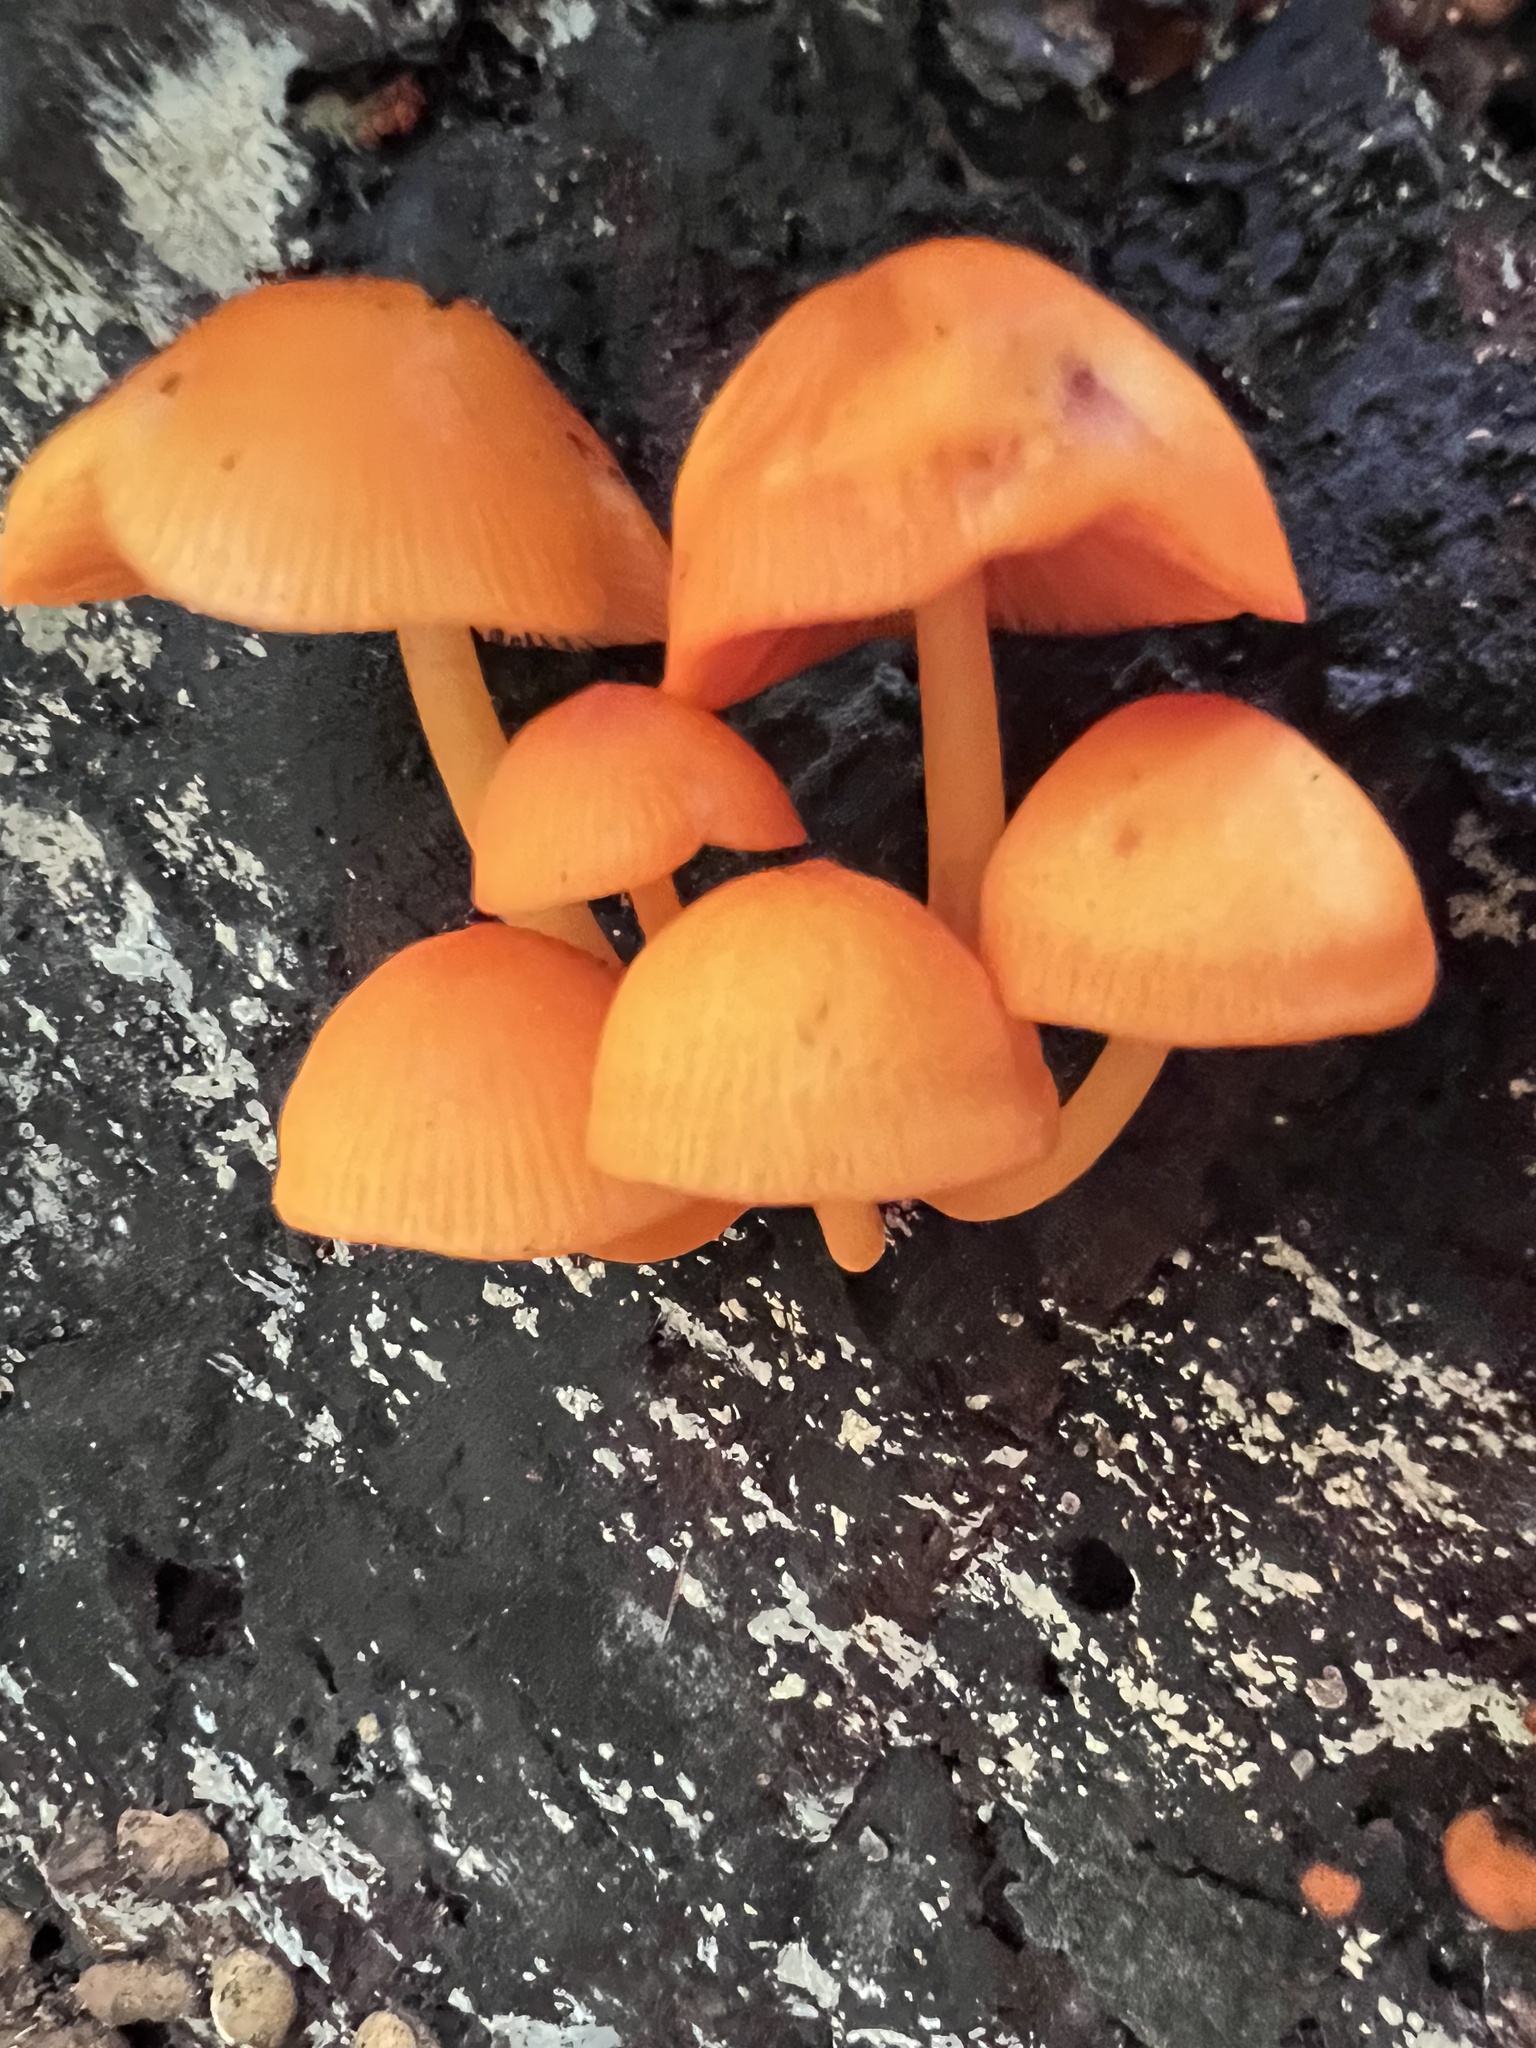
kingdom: Fungi
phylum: Basidiomycota
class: Agaricomycetes
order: Agaricales
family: Mycenaceae
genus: Mycena
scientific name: Mycena leaiana
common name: Orange mycena
